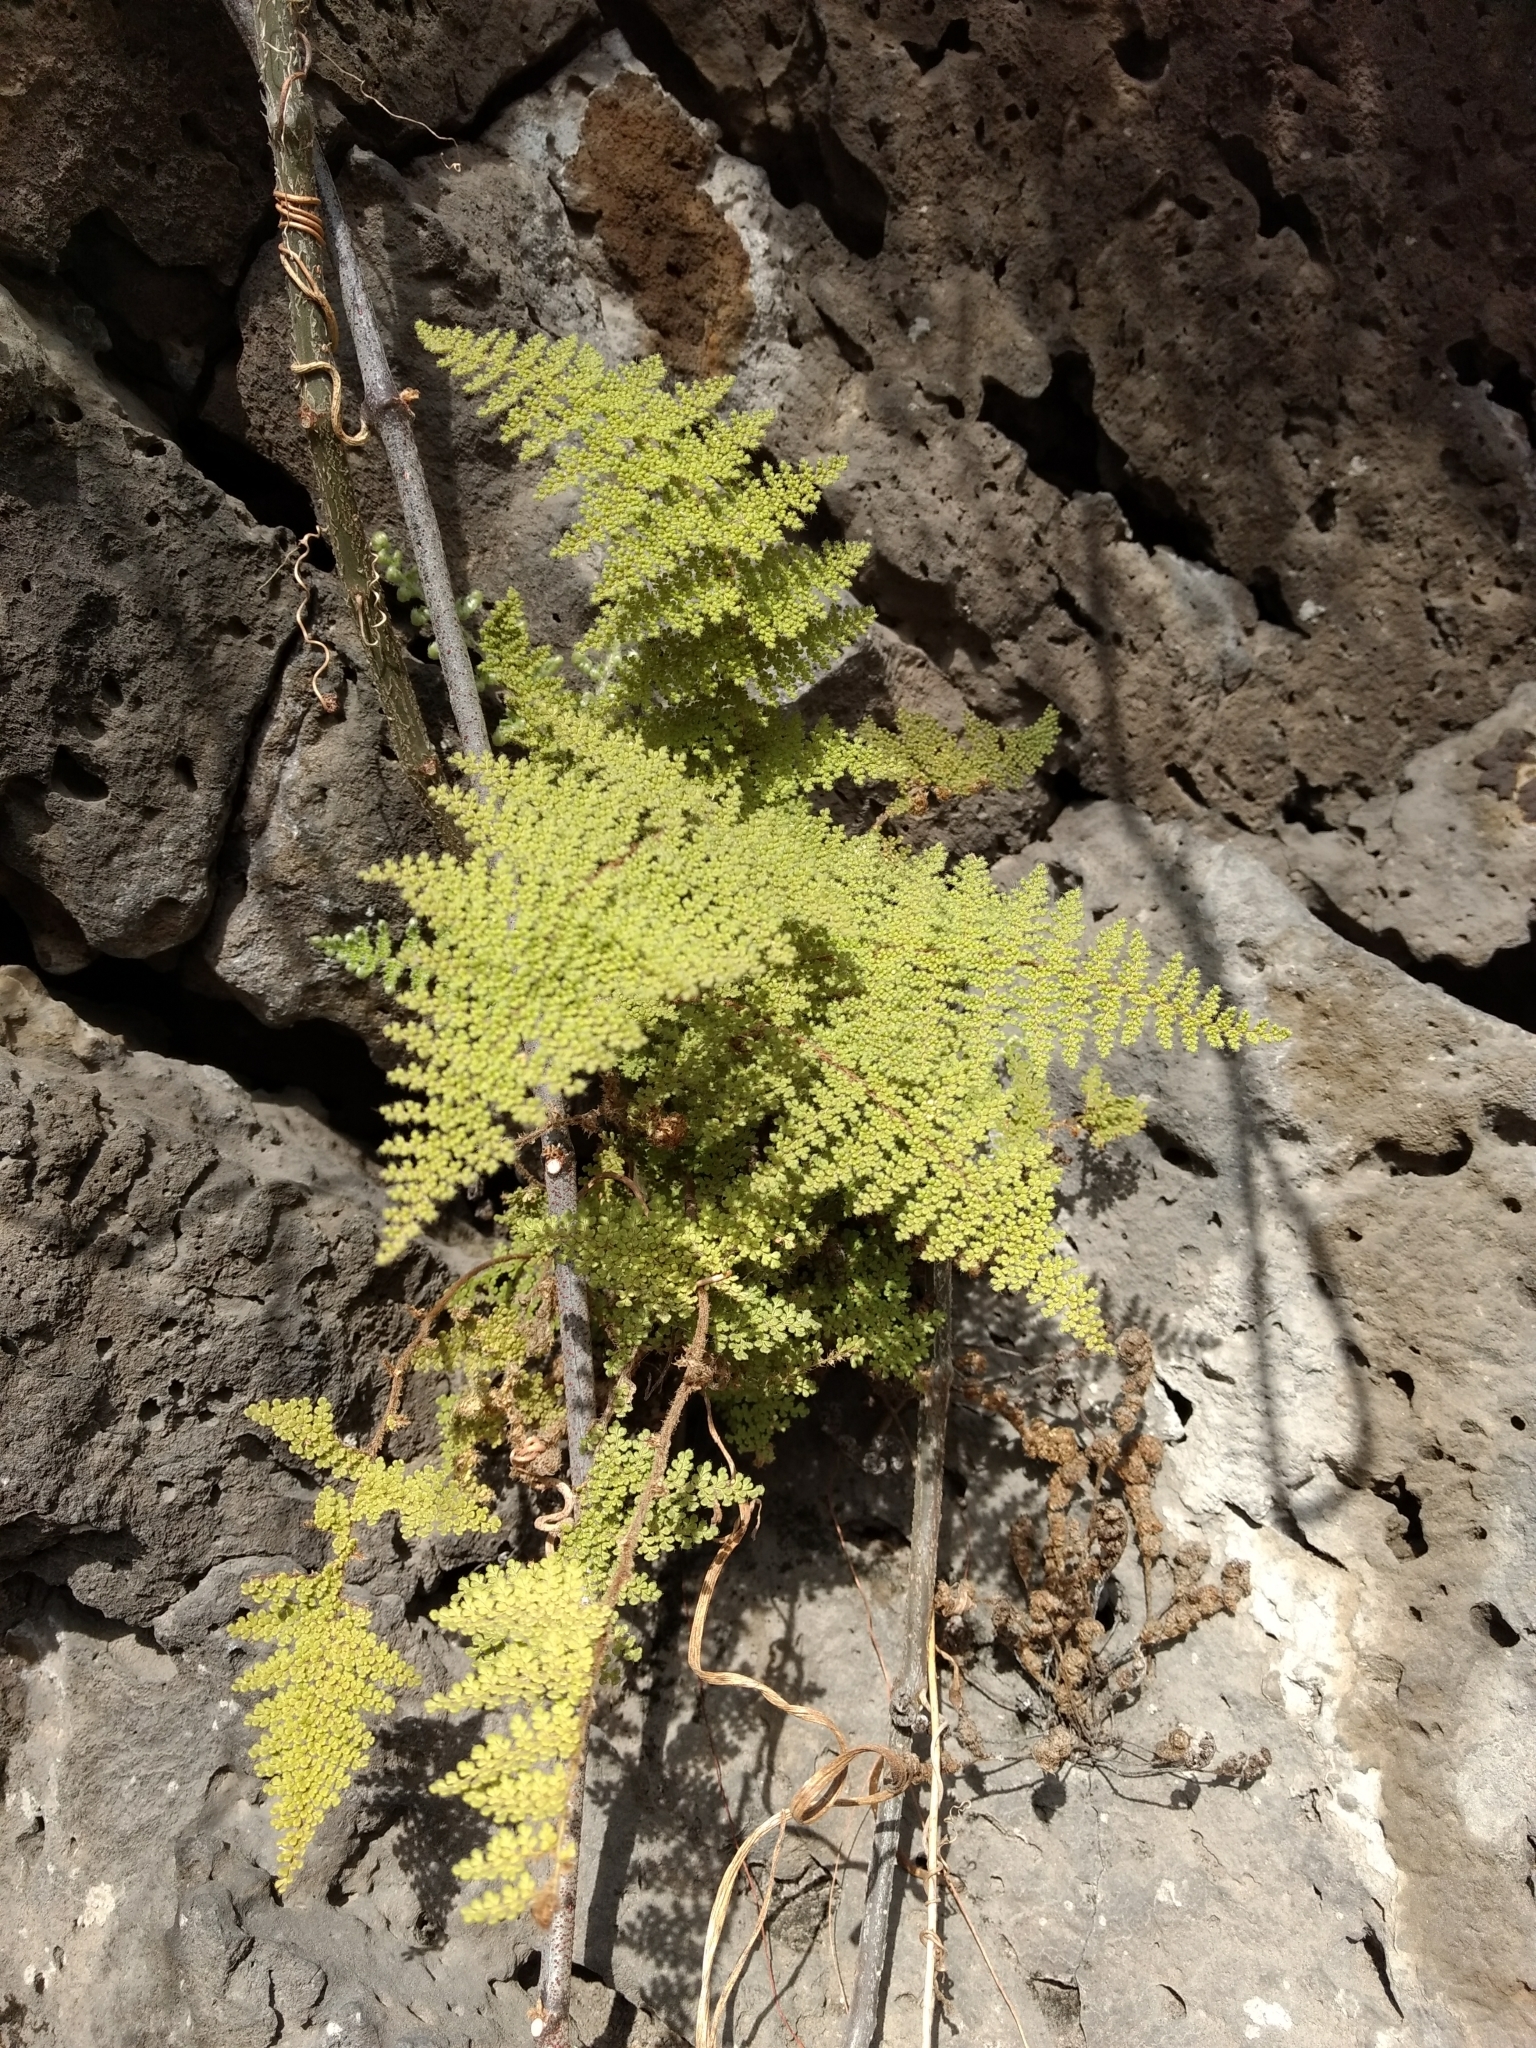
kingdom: Plantae
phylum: Tracheophyta
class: Polypodiopsida
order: Polypodiales
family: Pteridaceae
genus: Myriopteris
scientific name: Myriopteris lendigera
